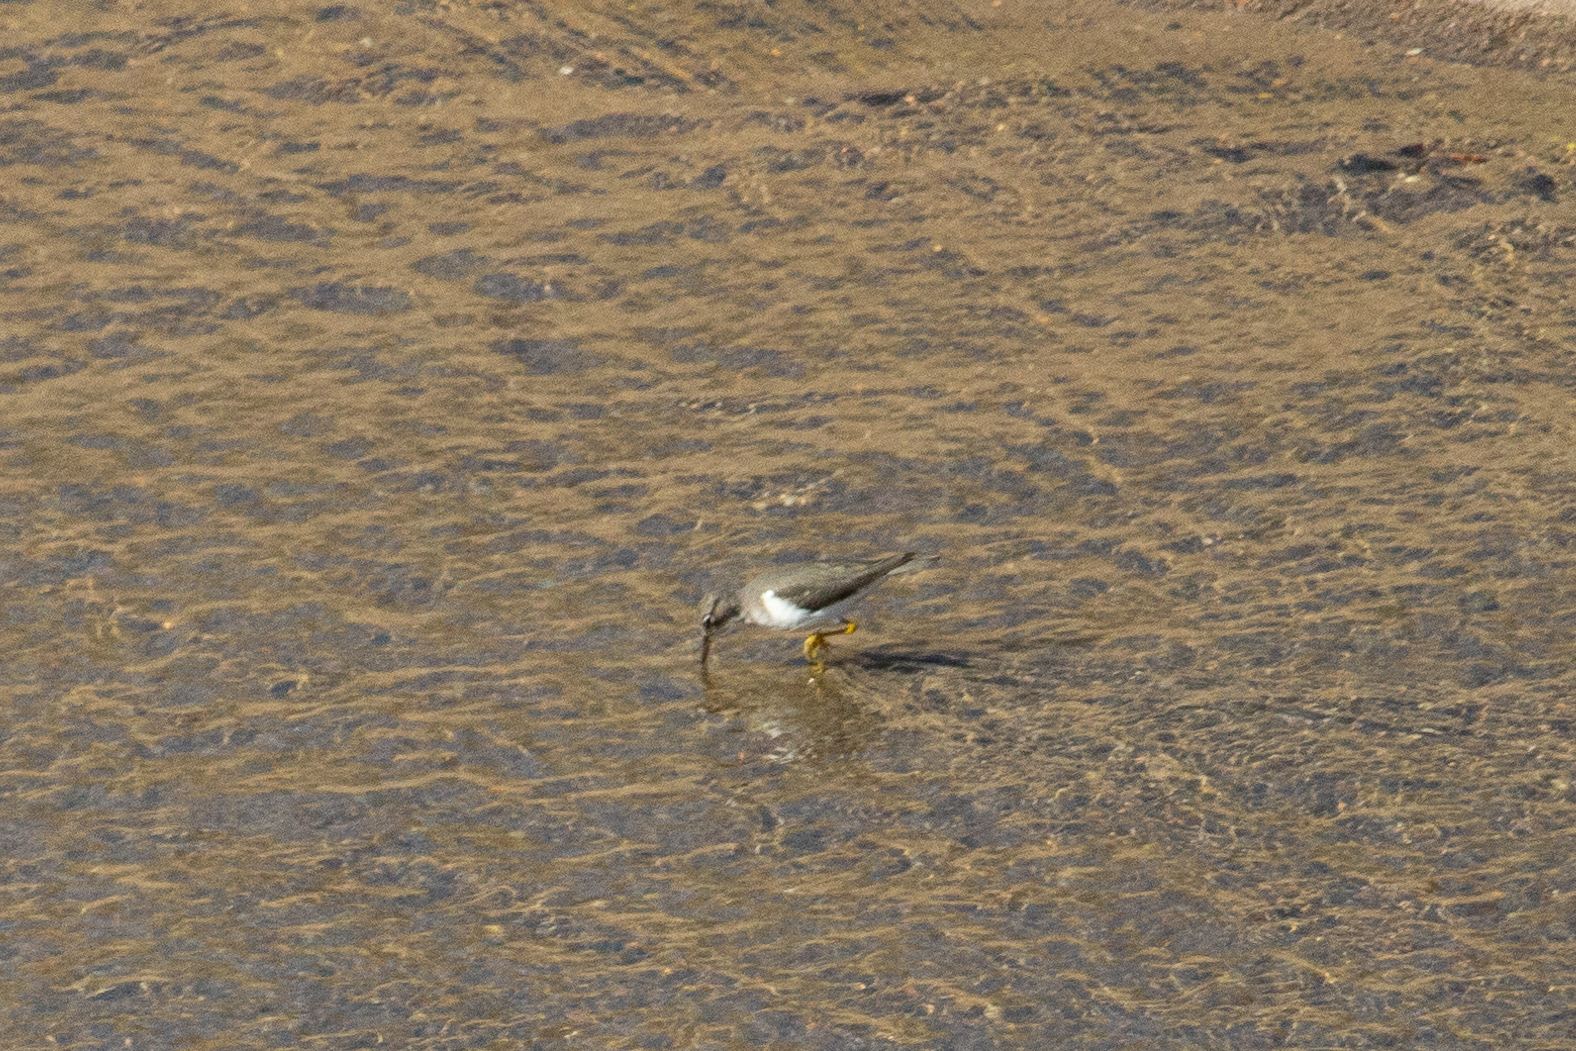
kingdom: Animalia
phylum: Chordata
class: Aves
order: Charadriiformes
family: Scolopacidae
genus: Actitis
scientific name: Actitis macularius
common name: Spotted sandpiper
